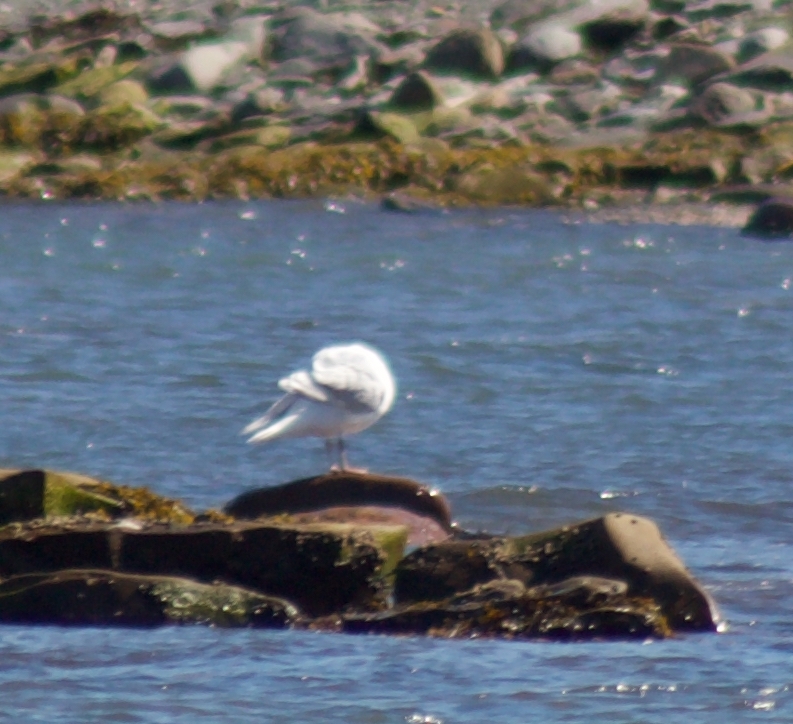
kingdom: Animalia
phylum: Chordata
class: Aves
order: Charadriiformes
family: Laridae
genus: Larus
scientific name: Larus glaucoides
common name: Iceland gull
